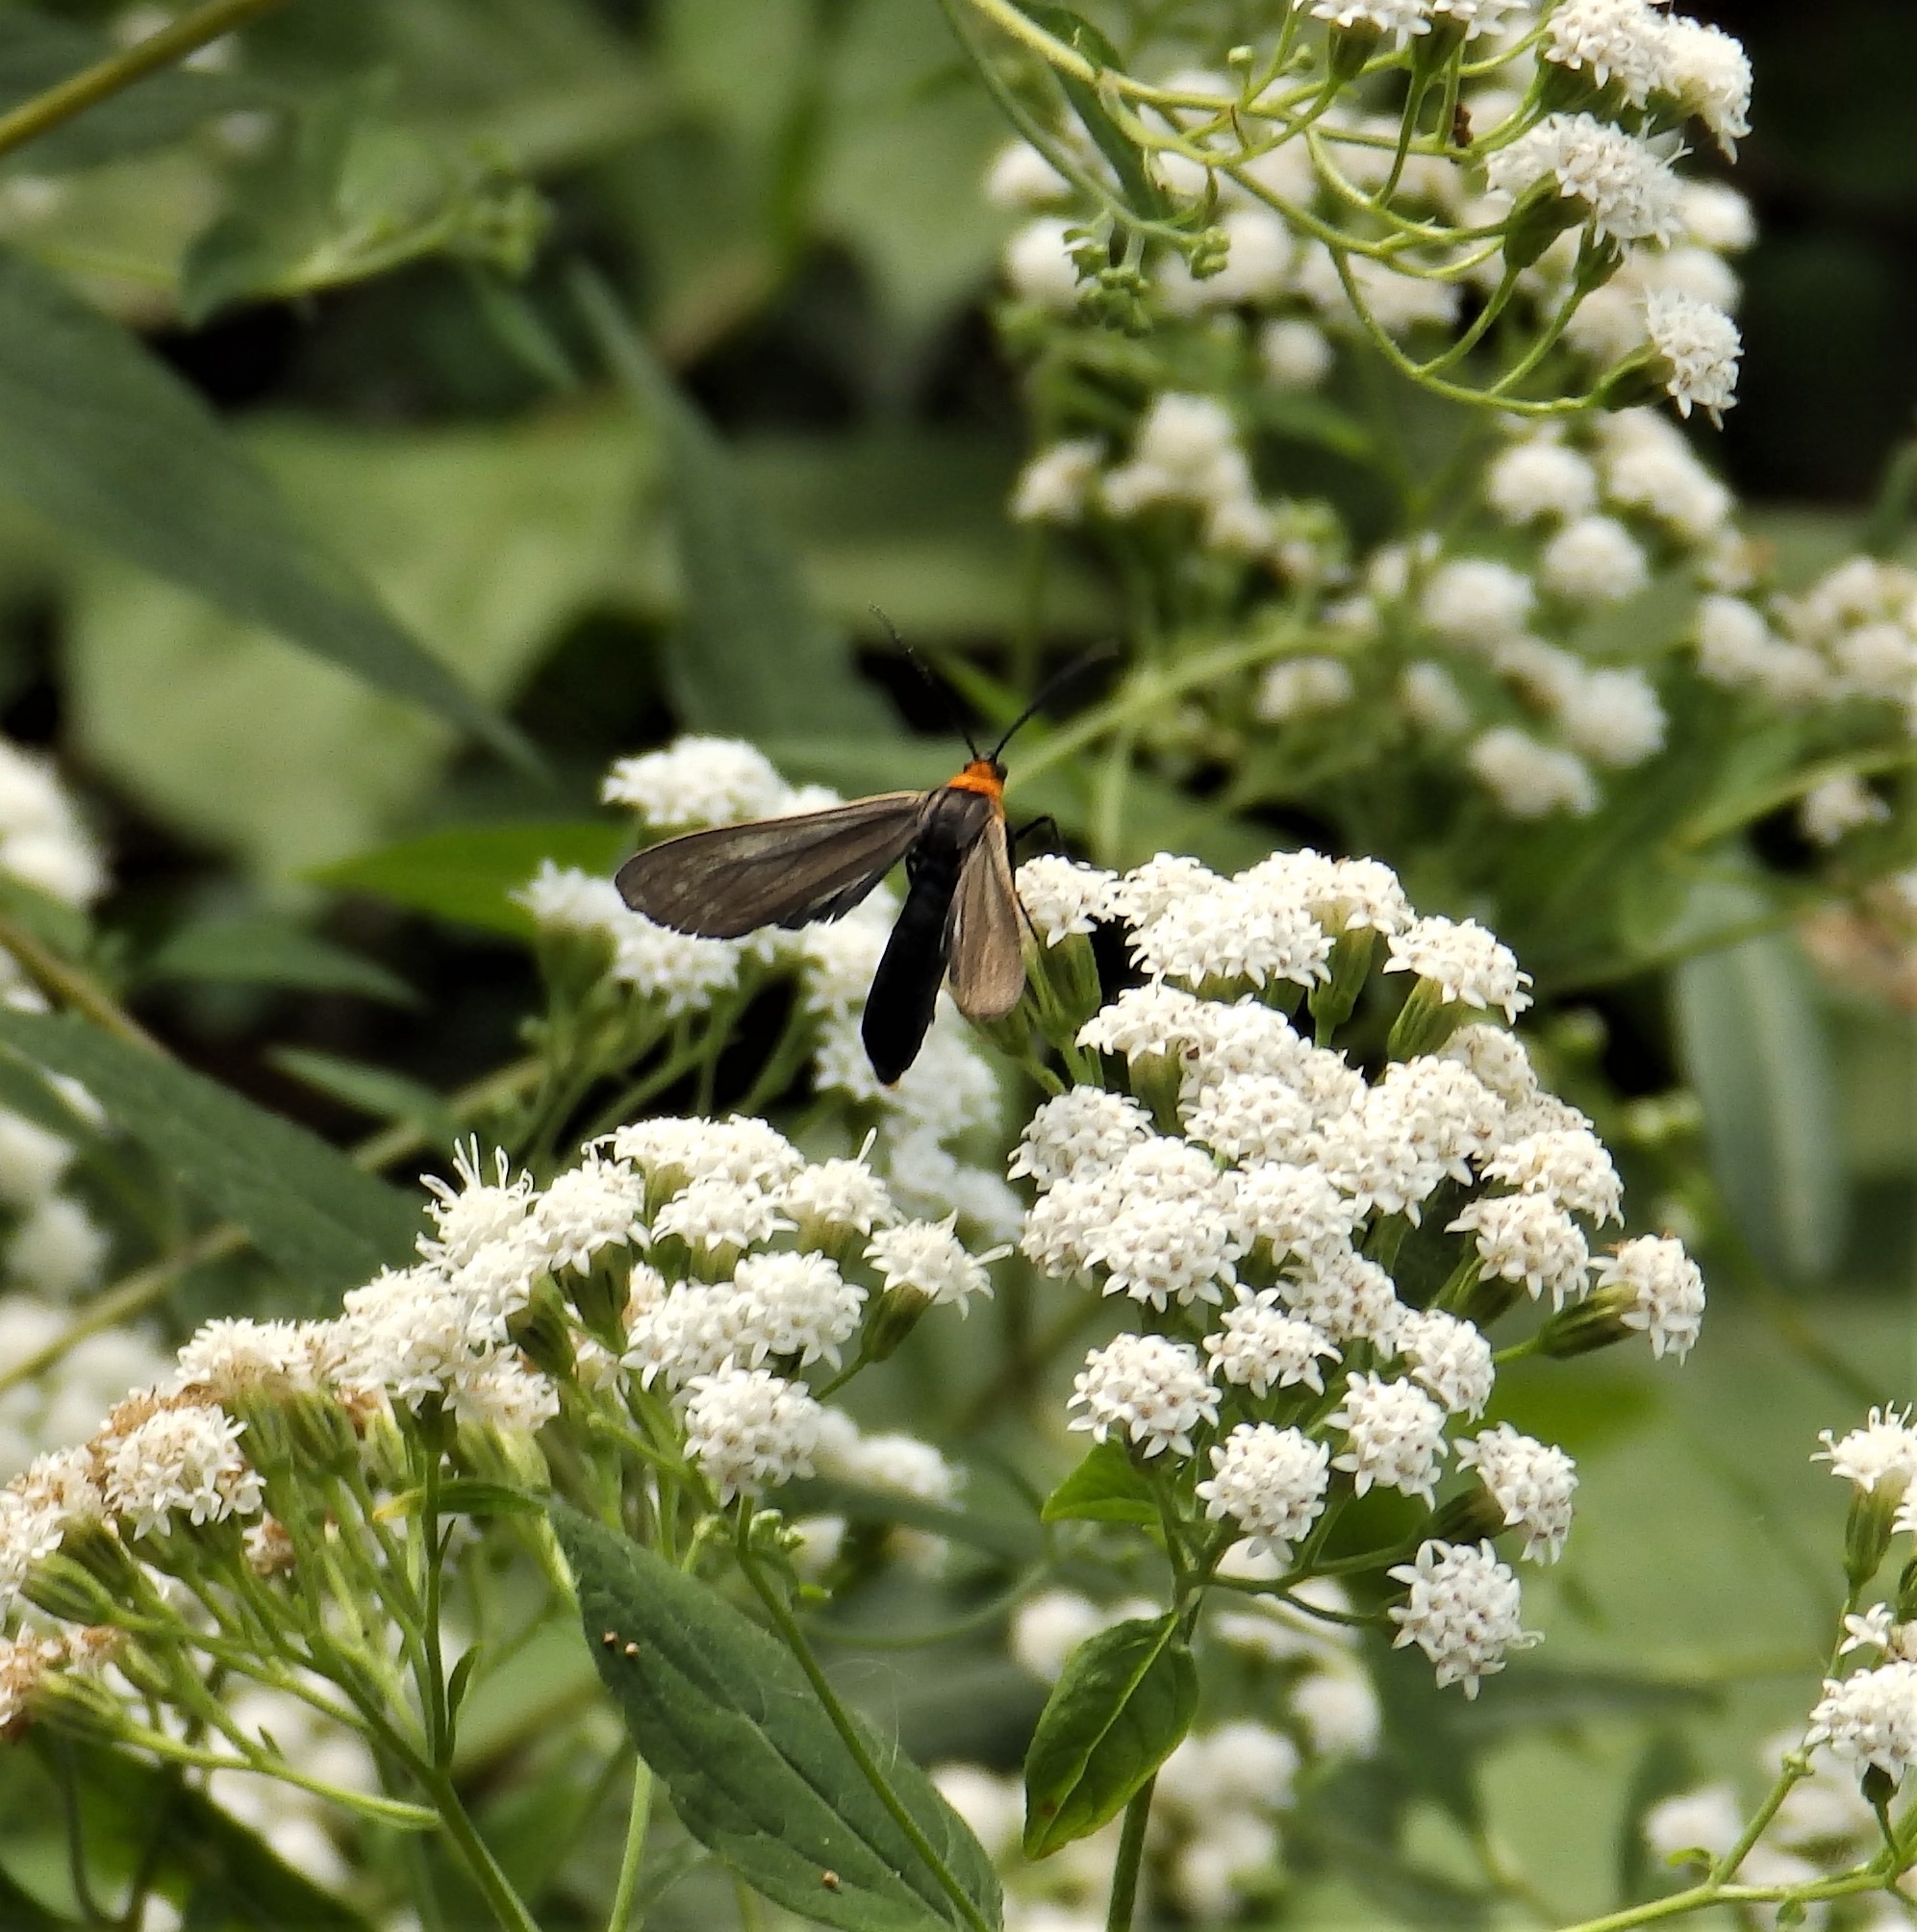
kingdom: Animalia
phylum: Arthropoda
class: Insecta
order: Lepidoptera
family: Erebidae
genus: Cisseps
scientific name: Cisseps fulvicollis
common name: Yellow-collared scape moth
